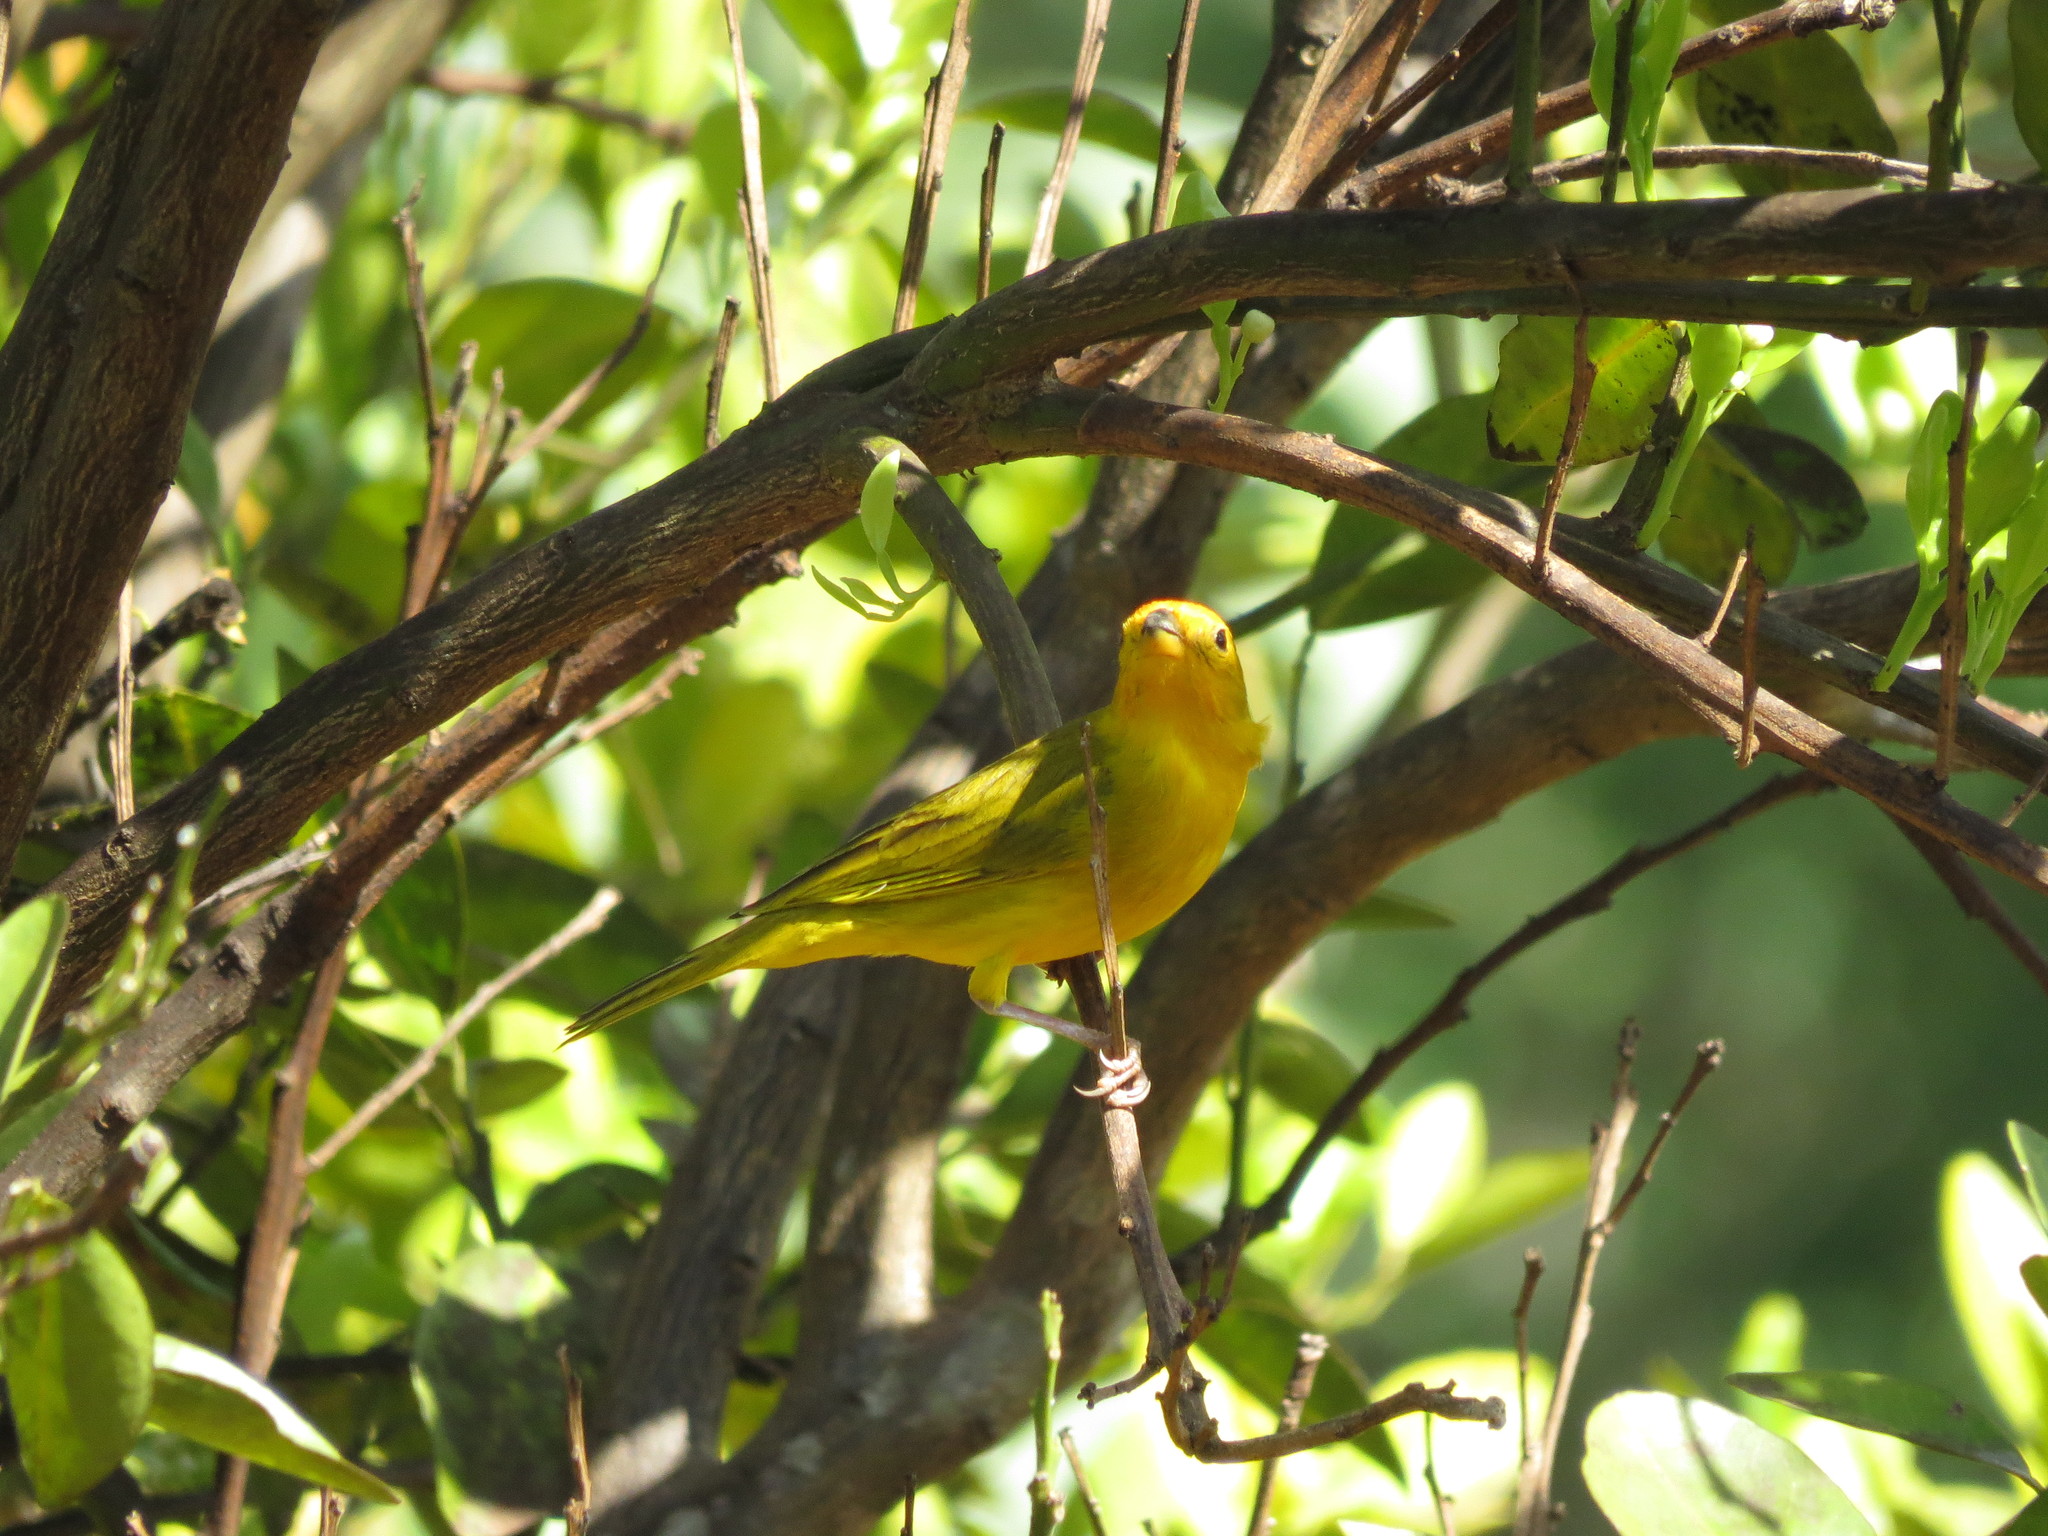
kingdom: Animalia
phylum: Chordata
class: Aves
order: Passeriformes
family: Thraupidae
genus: Sicalis
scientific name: Sicalis flaveola
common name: Saffron finch
